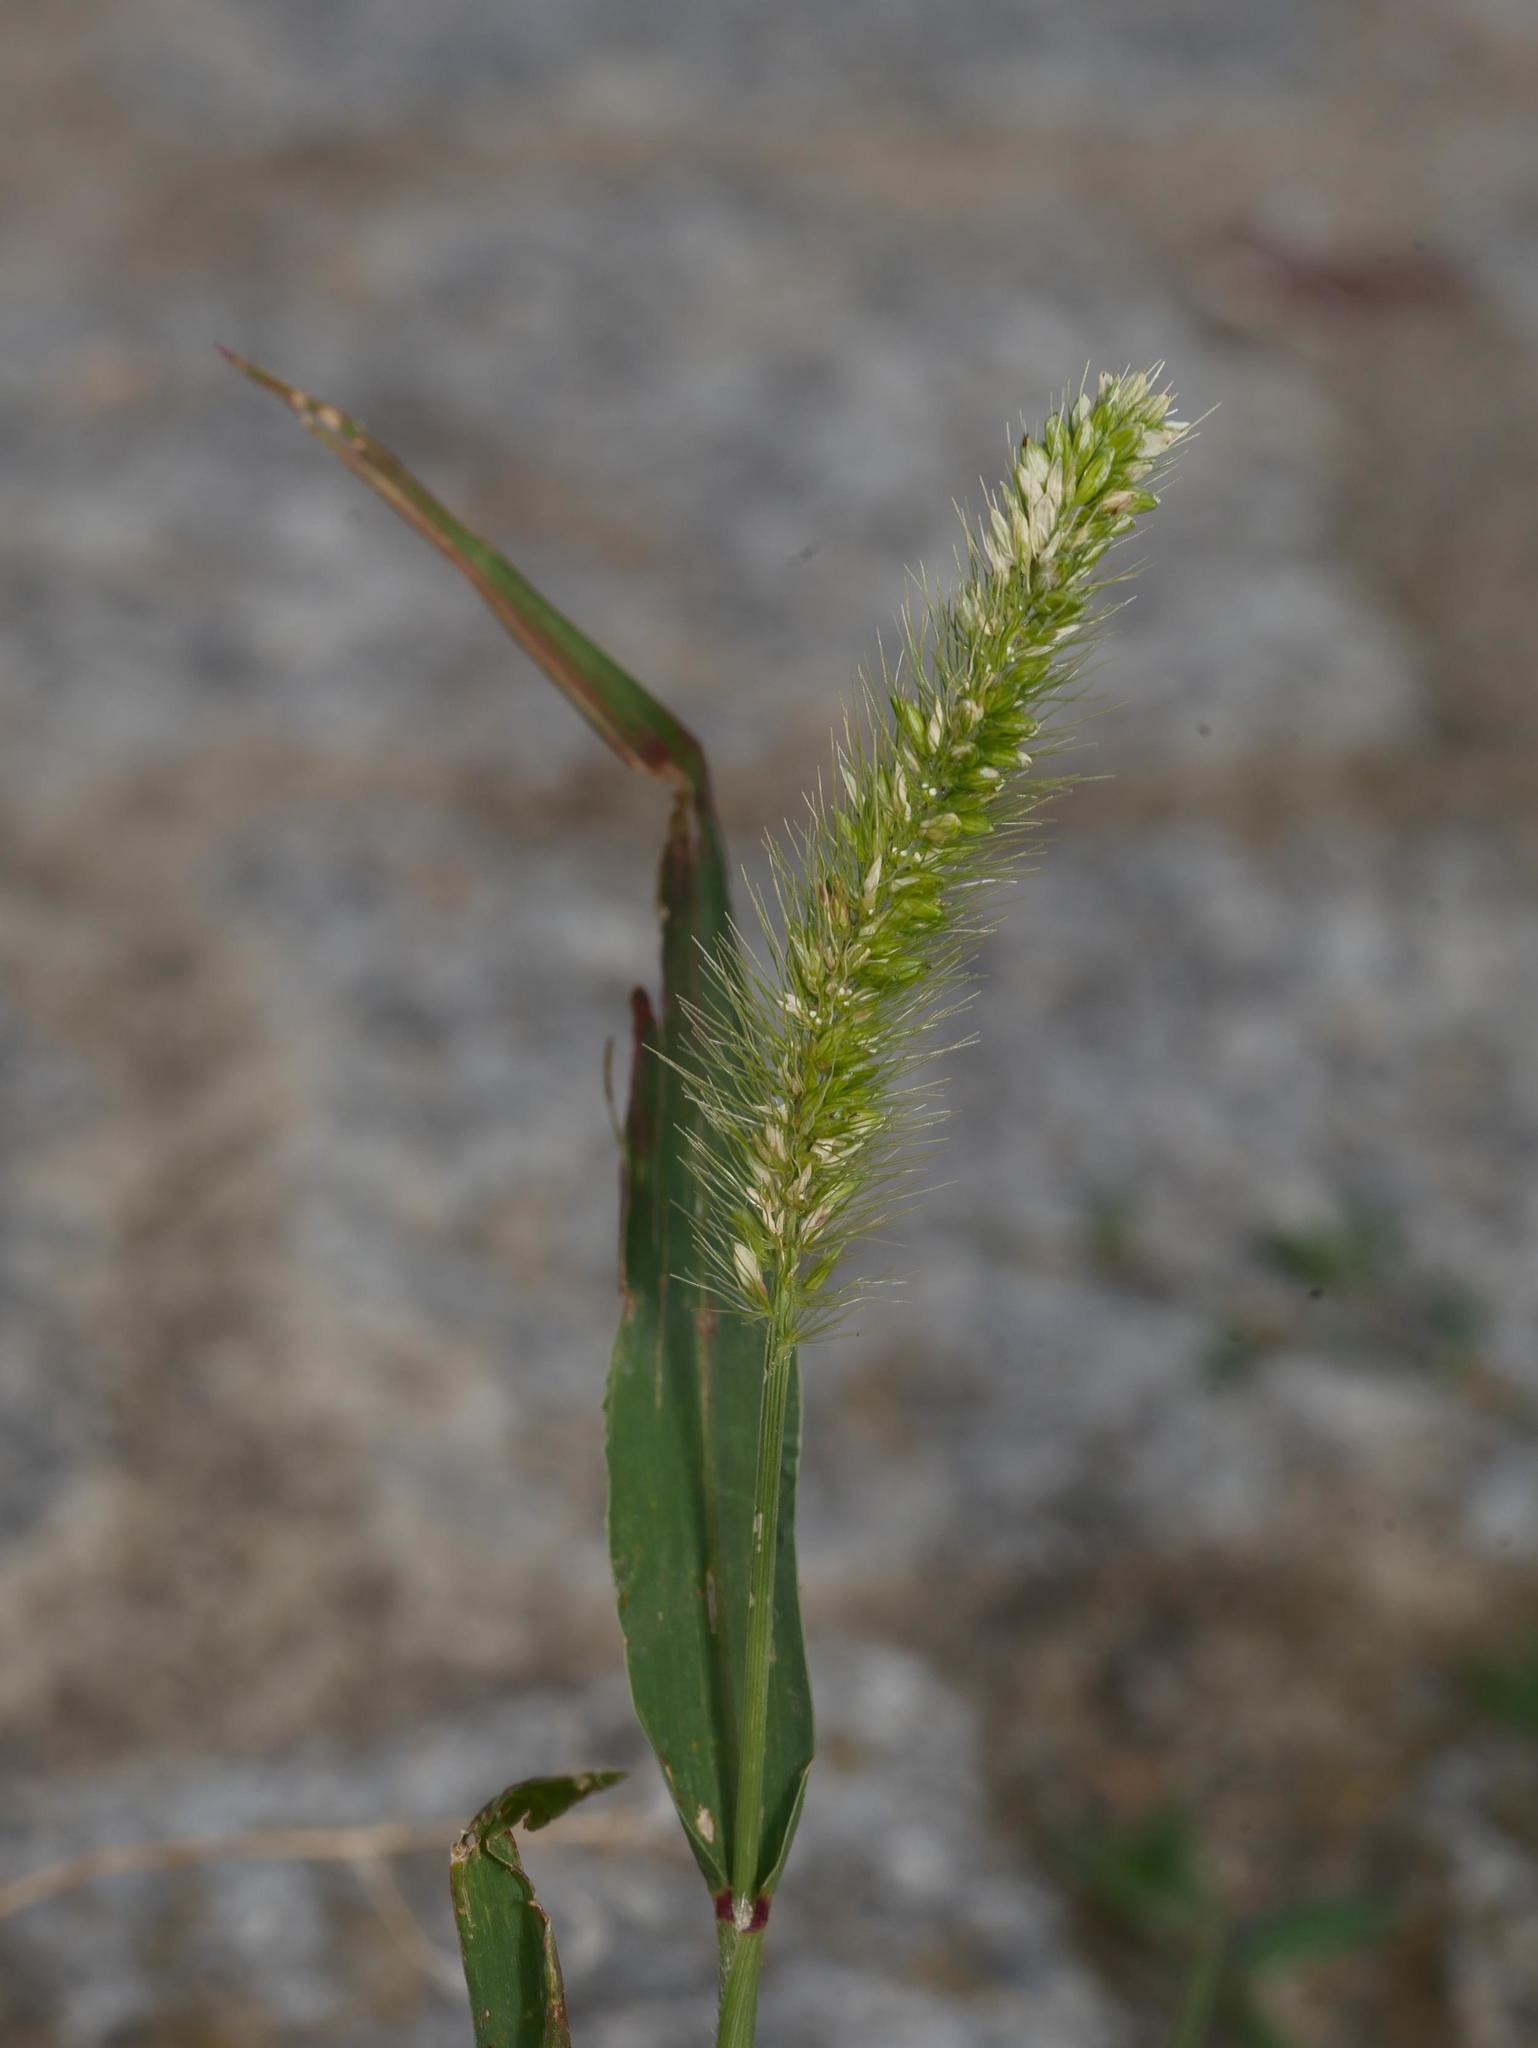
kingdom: Plantae
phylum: Tracheophyta
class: Liliopsida
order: Poales
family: Poaceae
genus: Setaria
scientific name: Setaria viridis
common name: Green bristlegrass
